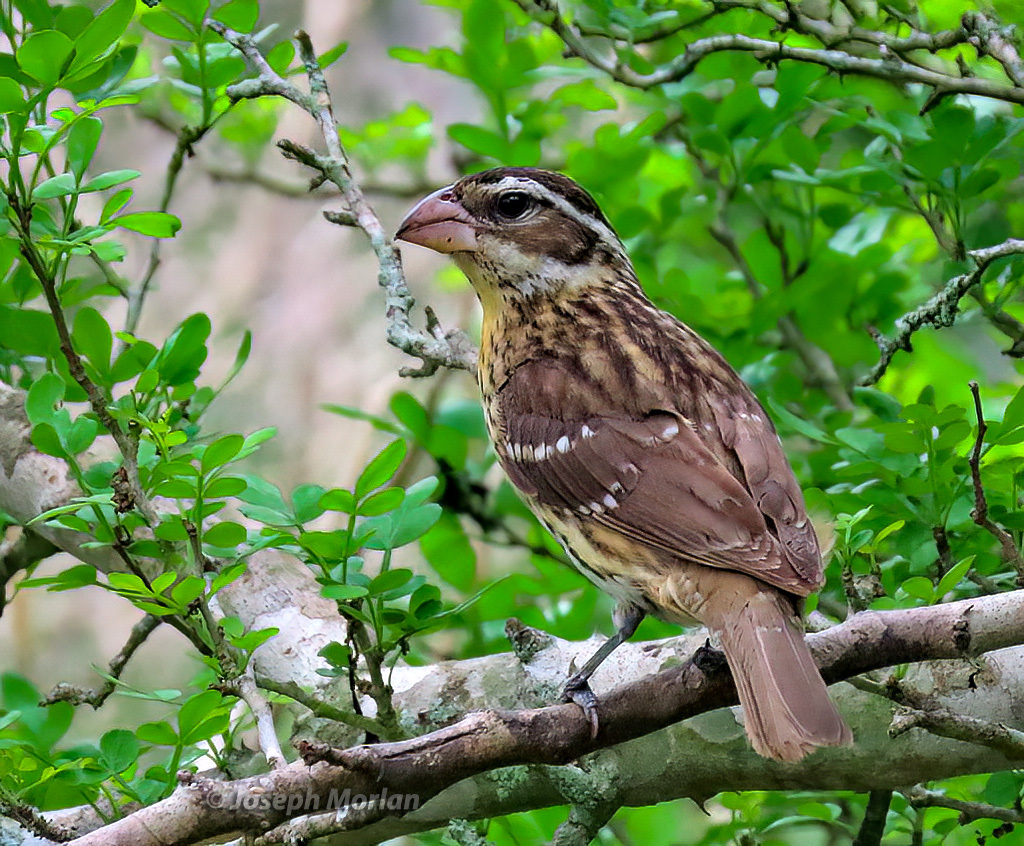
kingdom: Animalia
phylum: Chordata
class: Aves
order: Passeriformes
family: Cardinalidae
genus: Pheucticus
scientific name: Pheucticus ludovicianus
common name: Rose-breasted grosbeak
